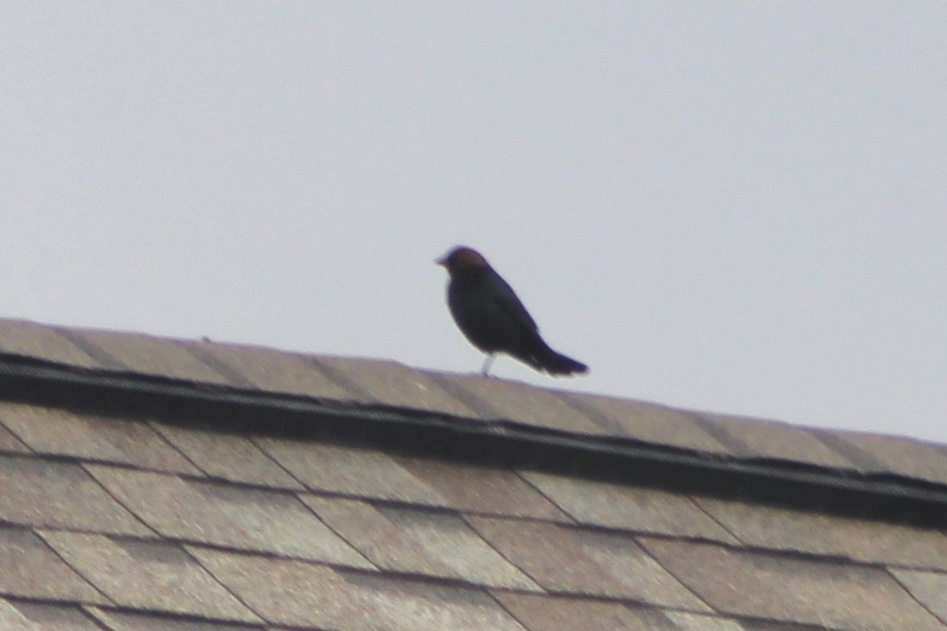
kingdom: Animalia
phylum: Chordata
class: Aves
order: Passeriformes
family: Icteridae
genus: Molothrus
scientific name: Molothrus ater
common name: Brown-headed cowbird
